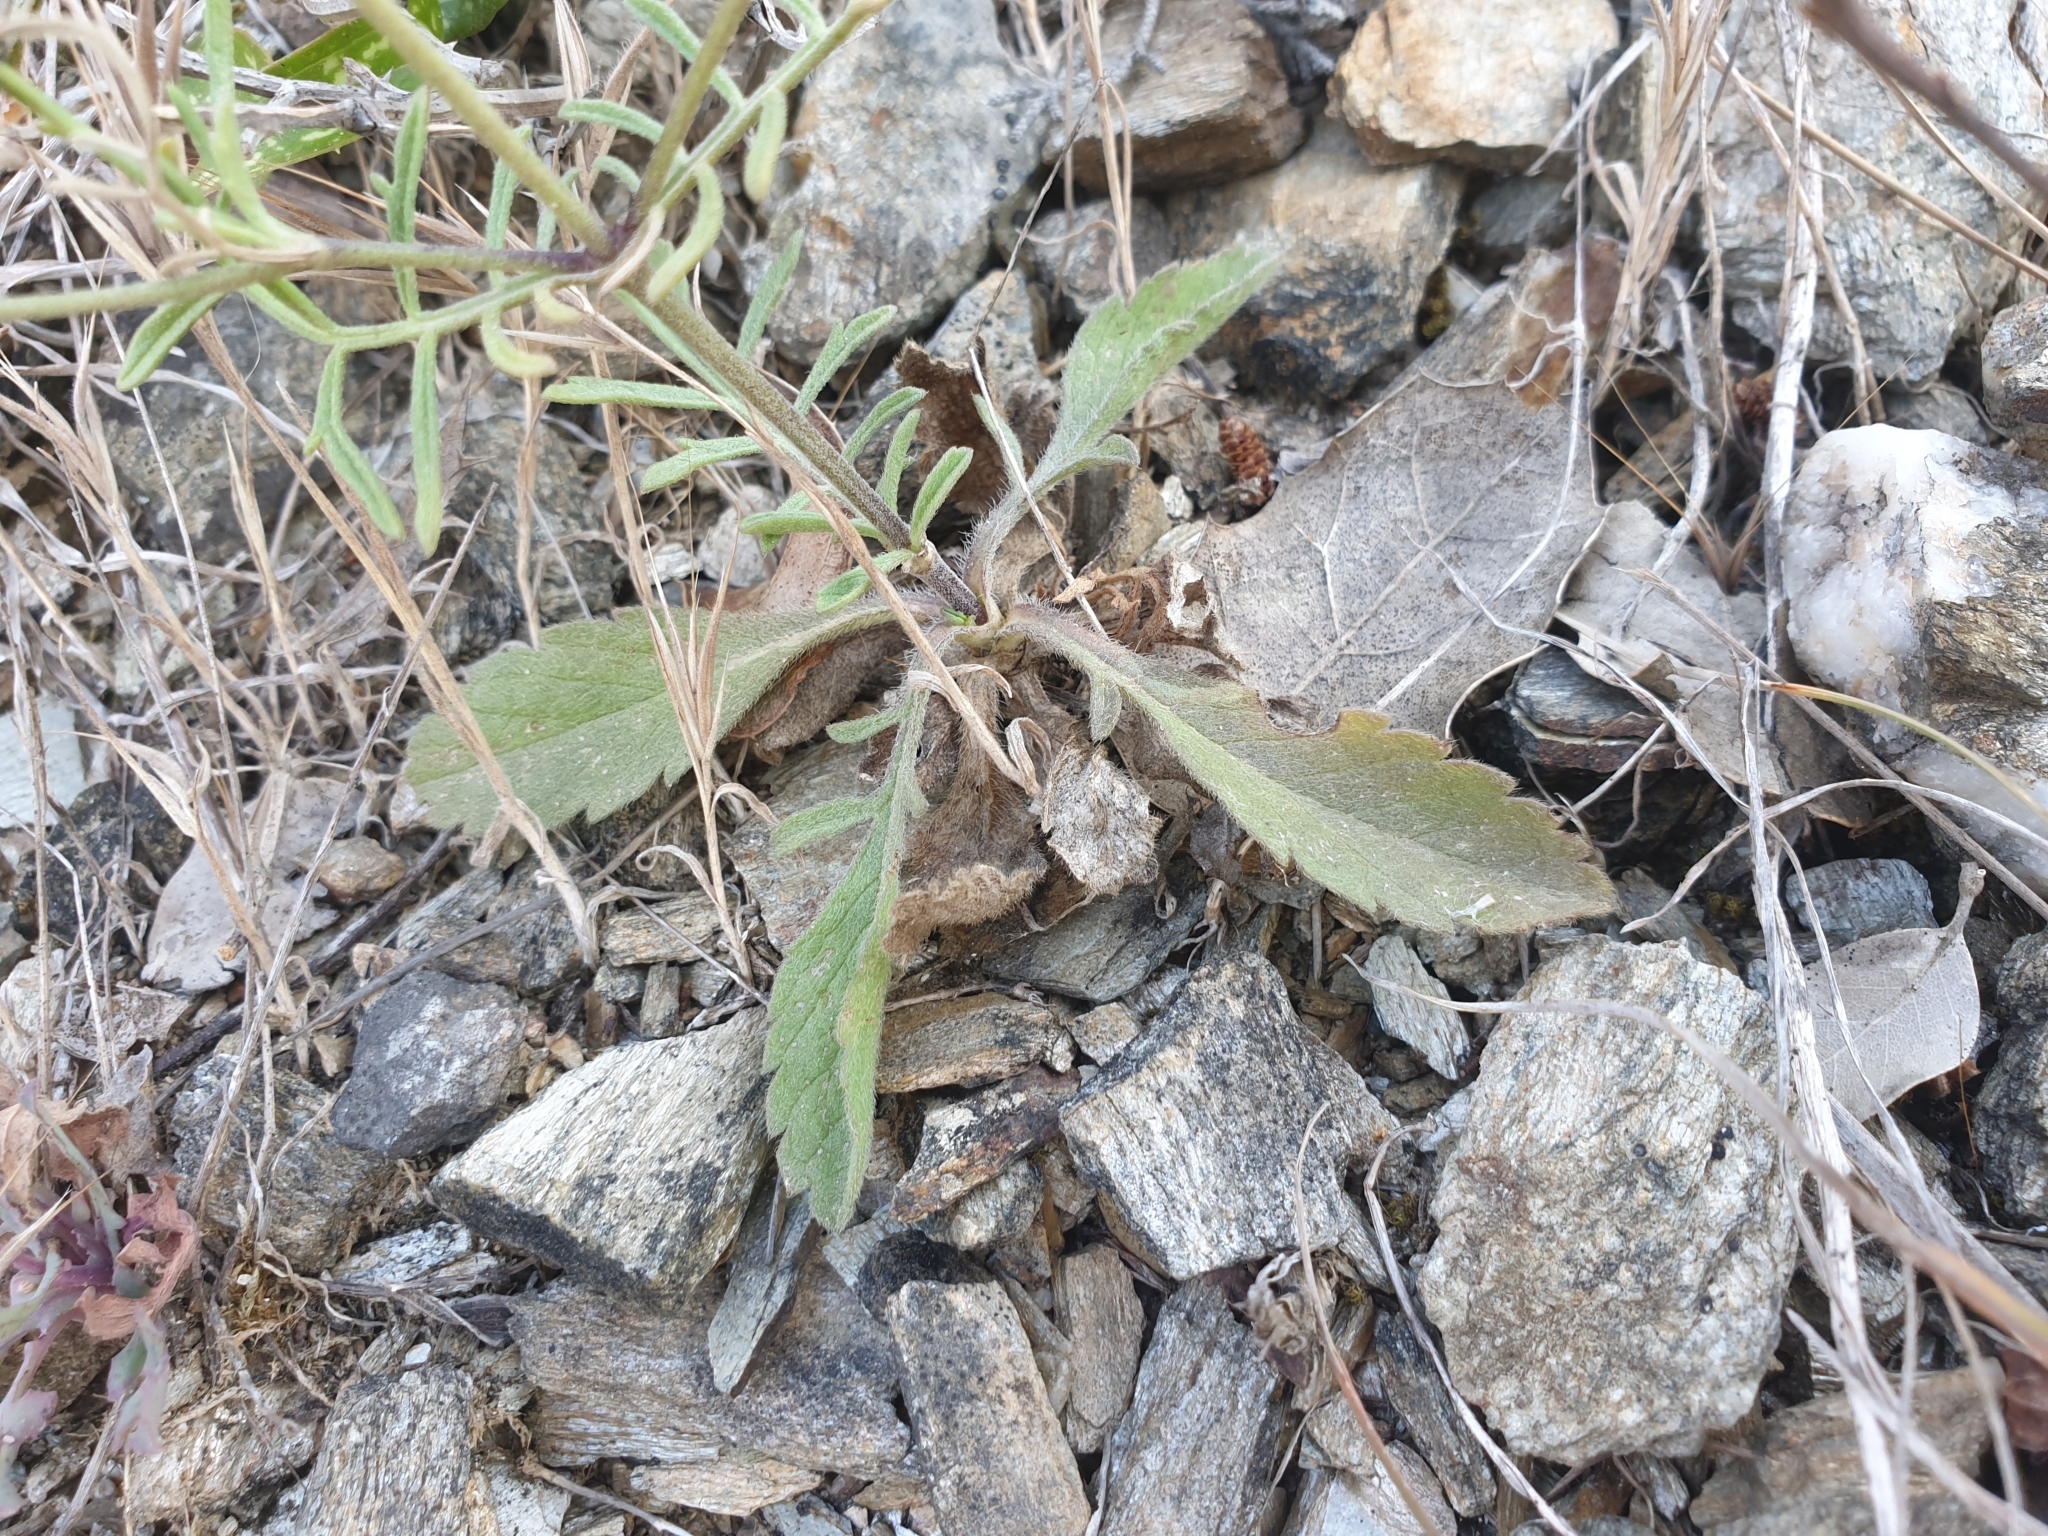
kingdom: Plantae
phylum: Tracheophyta
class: Magnoliopsida
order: Dipsacales
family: Caprifoliaceae
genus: Sixalix
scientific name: Sixalix atropurpurea
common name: Sweet scabious
